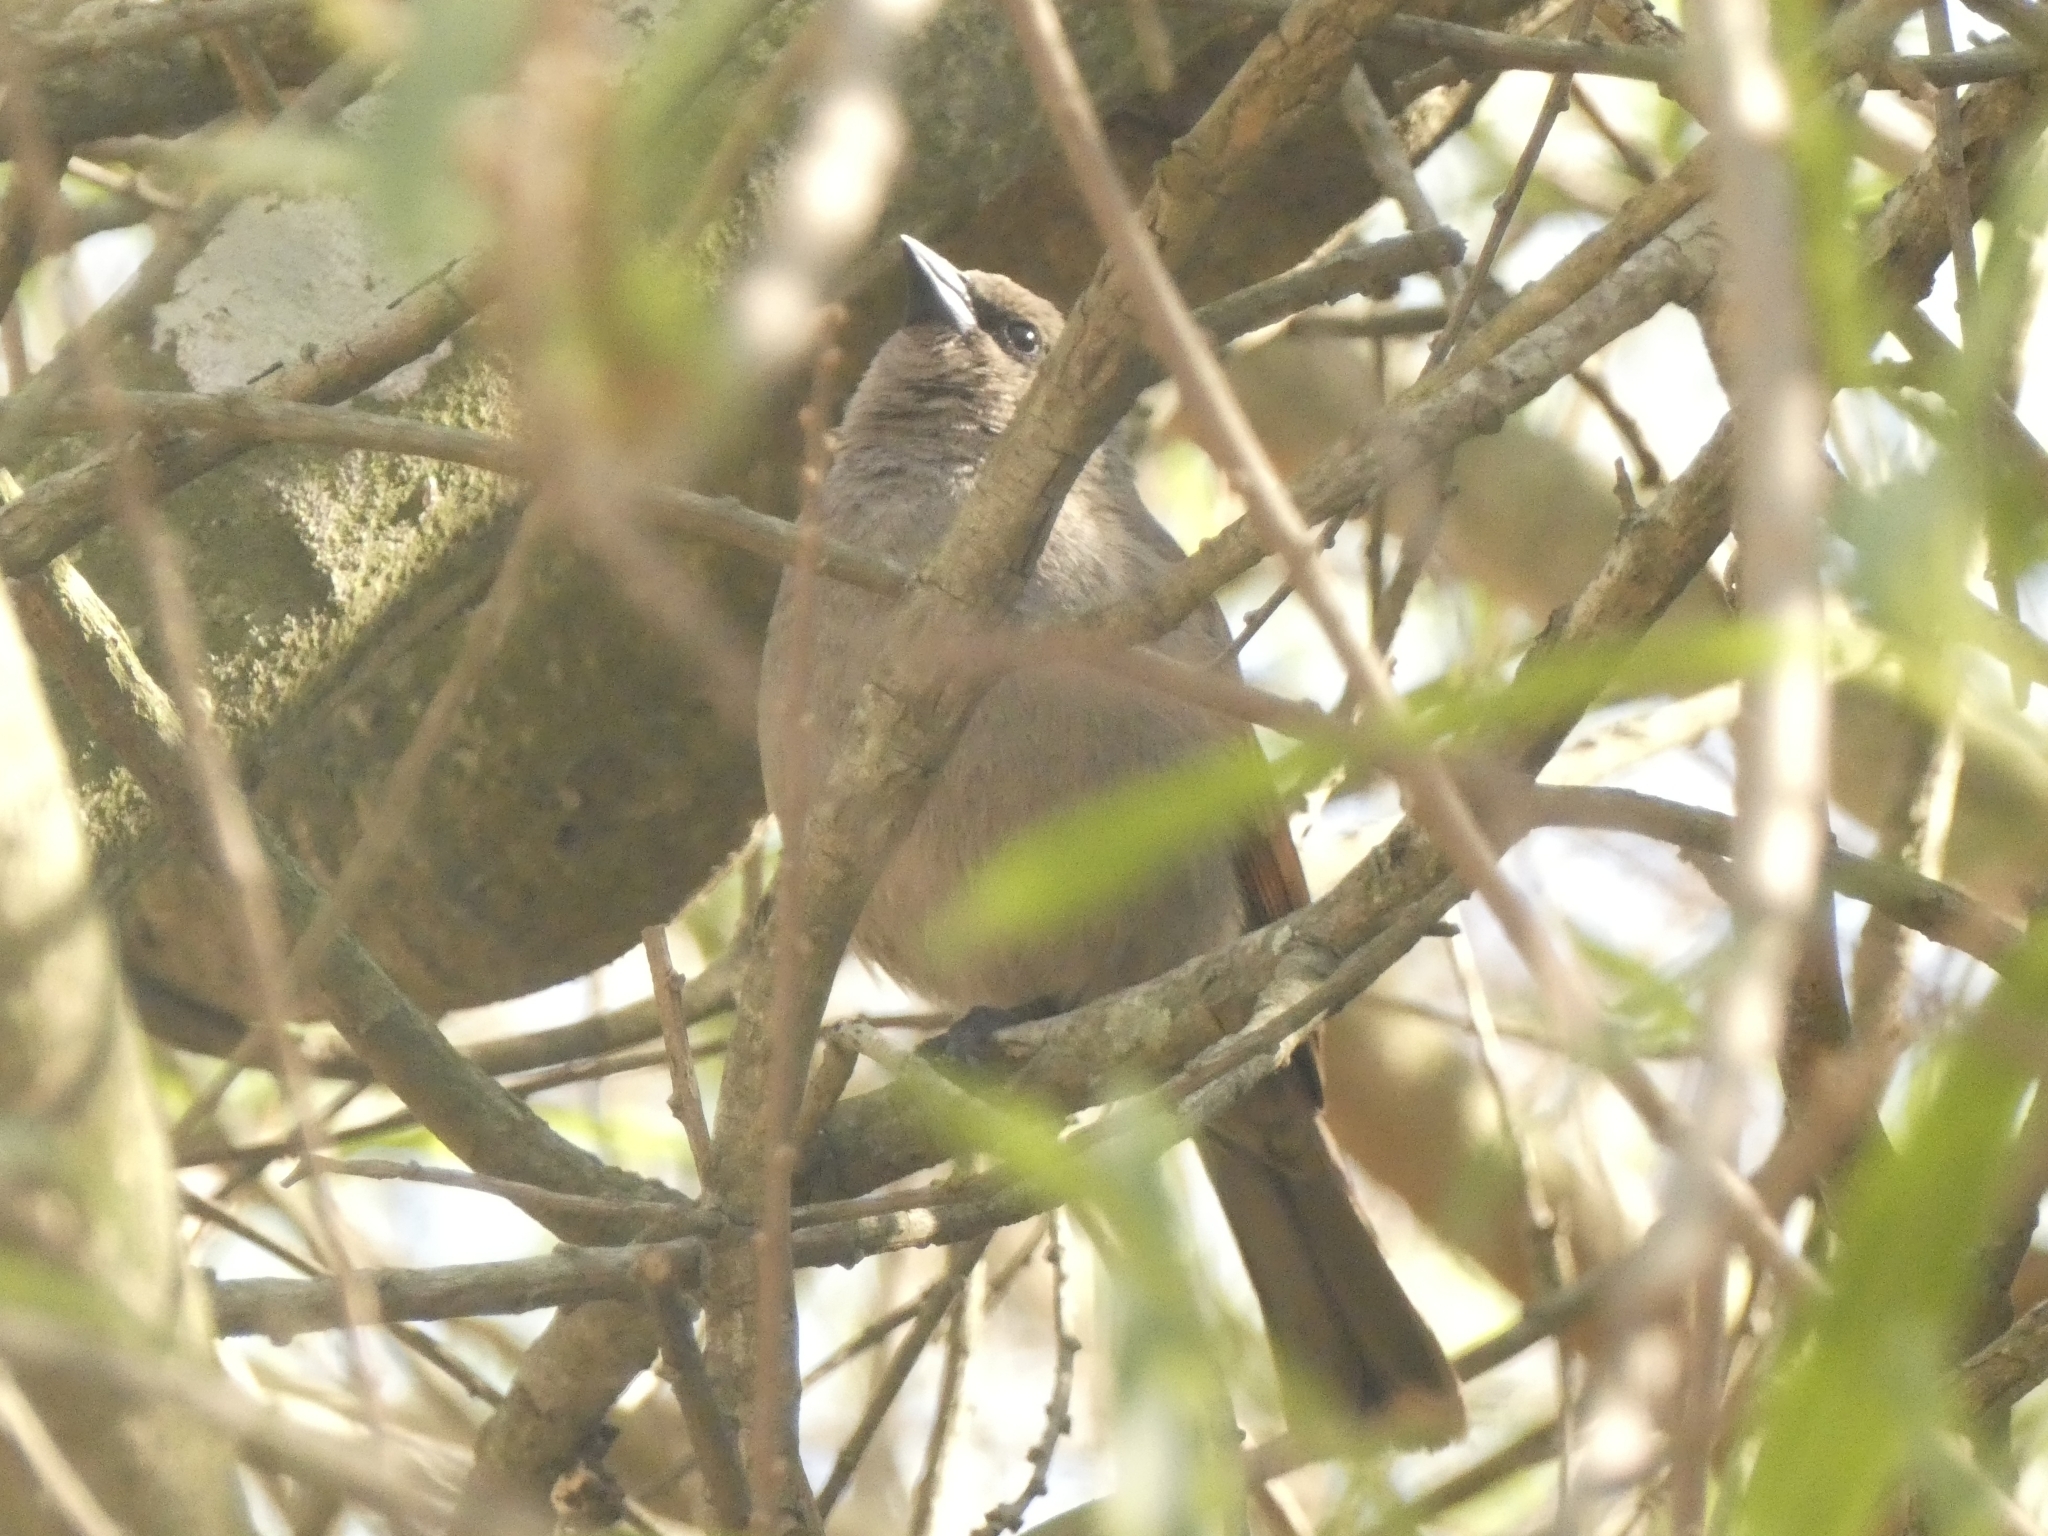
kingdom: Animalia
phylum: Chordata
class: Aves
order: Passeriformes
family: Icteridae
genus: Agelaioides
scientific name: Agelaioides badius
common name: Baywing
